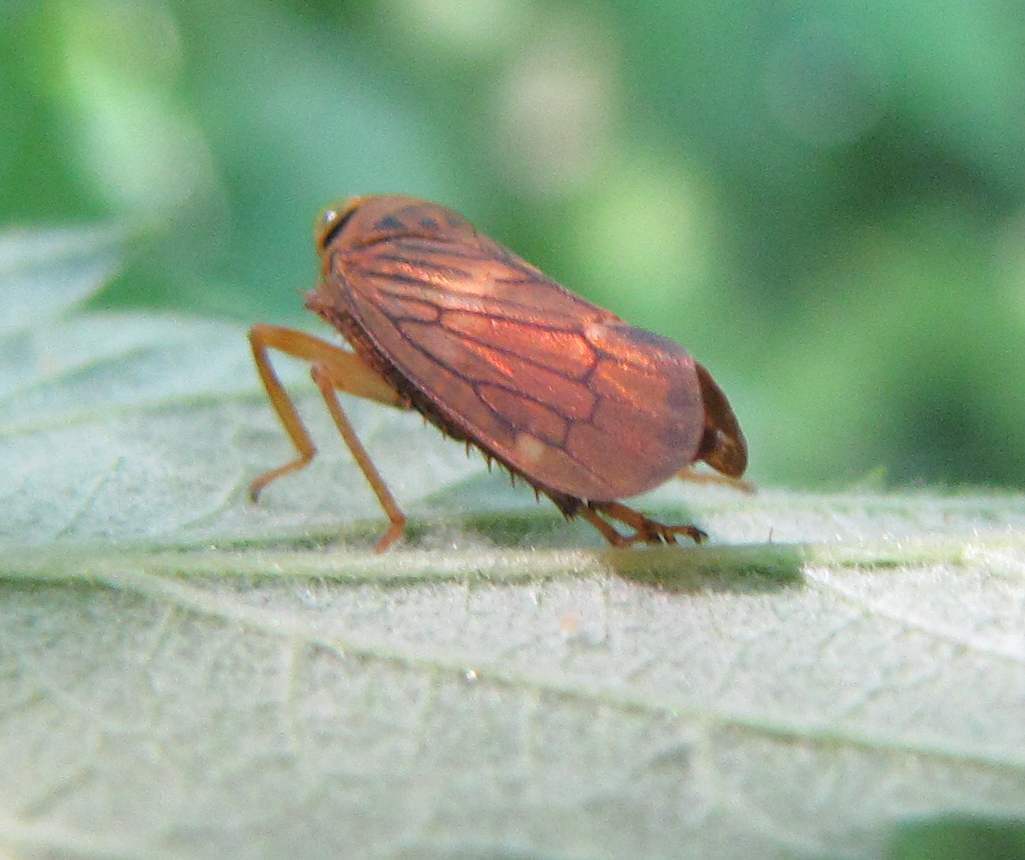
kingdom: Animalia
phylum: Arthropoda
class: Insecta
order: Hemiptera
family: Cicadellidae
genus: Jikradia
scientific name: Jikradia olitoria
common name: Coppery leafhopper
